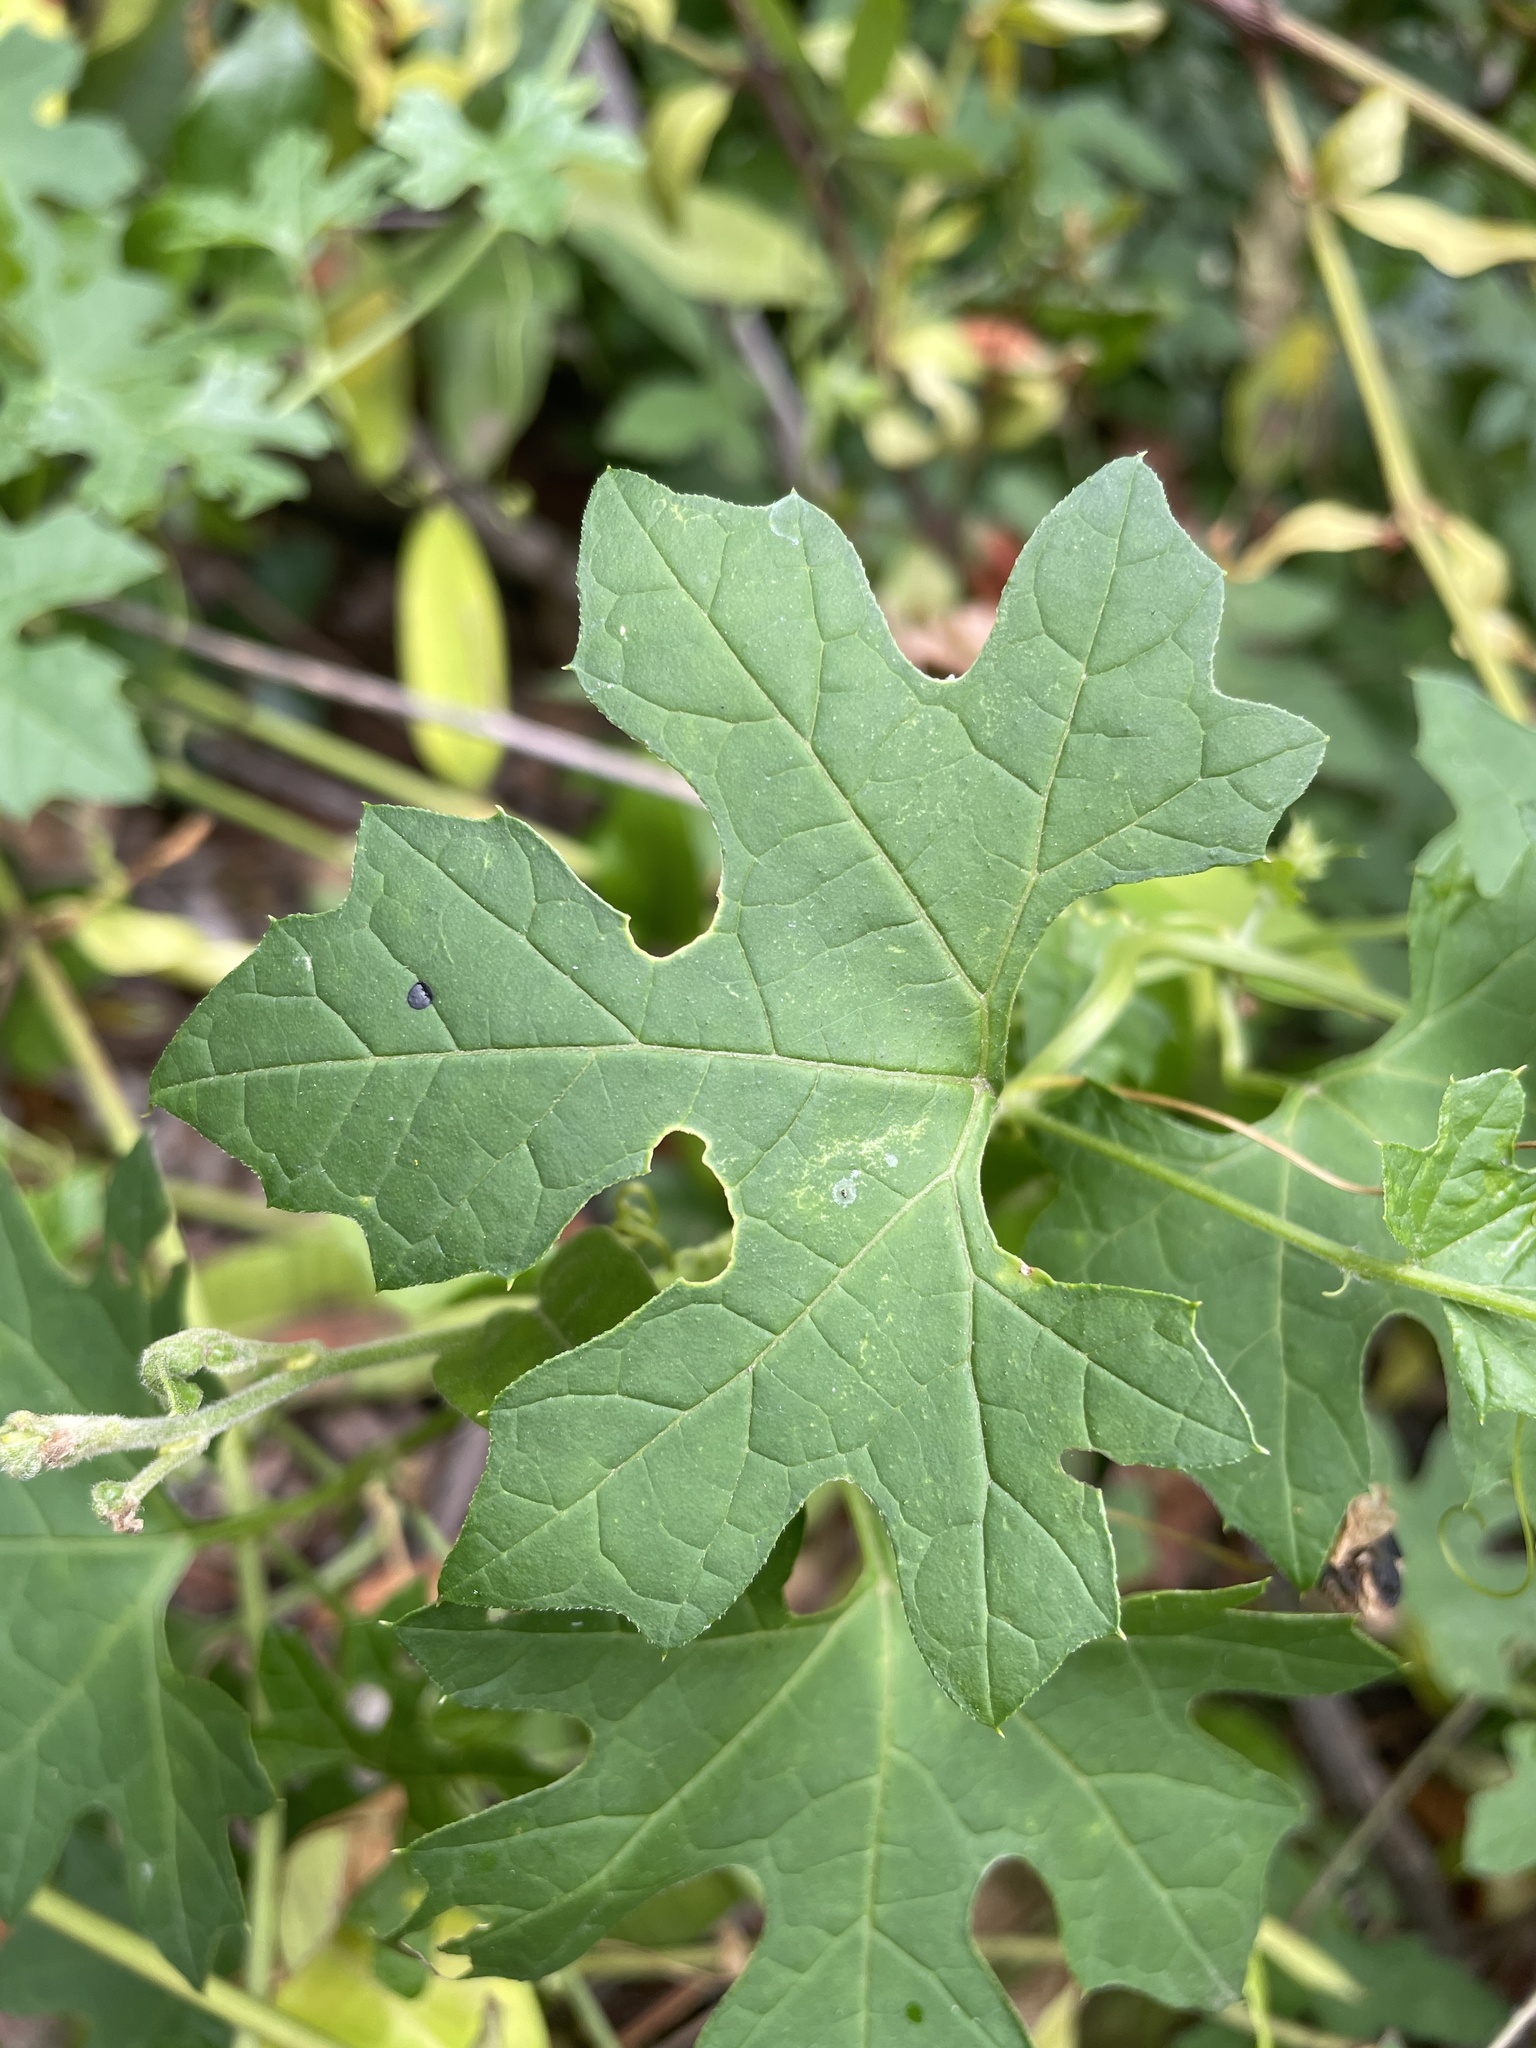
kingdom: Plantae
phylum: Tracheophyta
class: Magnoliopsida
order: Cucurbitales
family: Cucurbitaceae
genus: Momordica
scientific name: Momordica balsamina
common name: Southern balsampear
